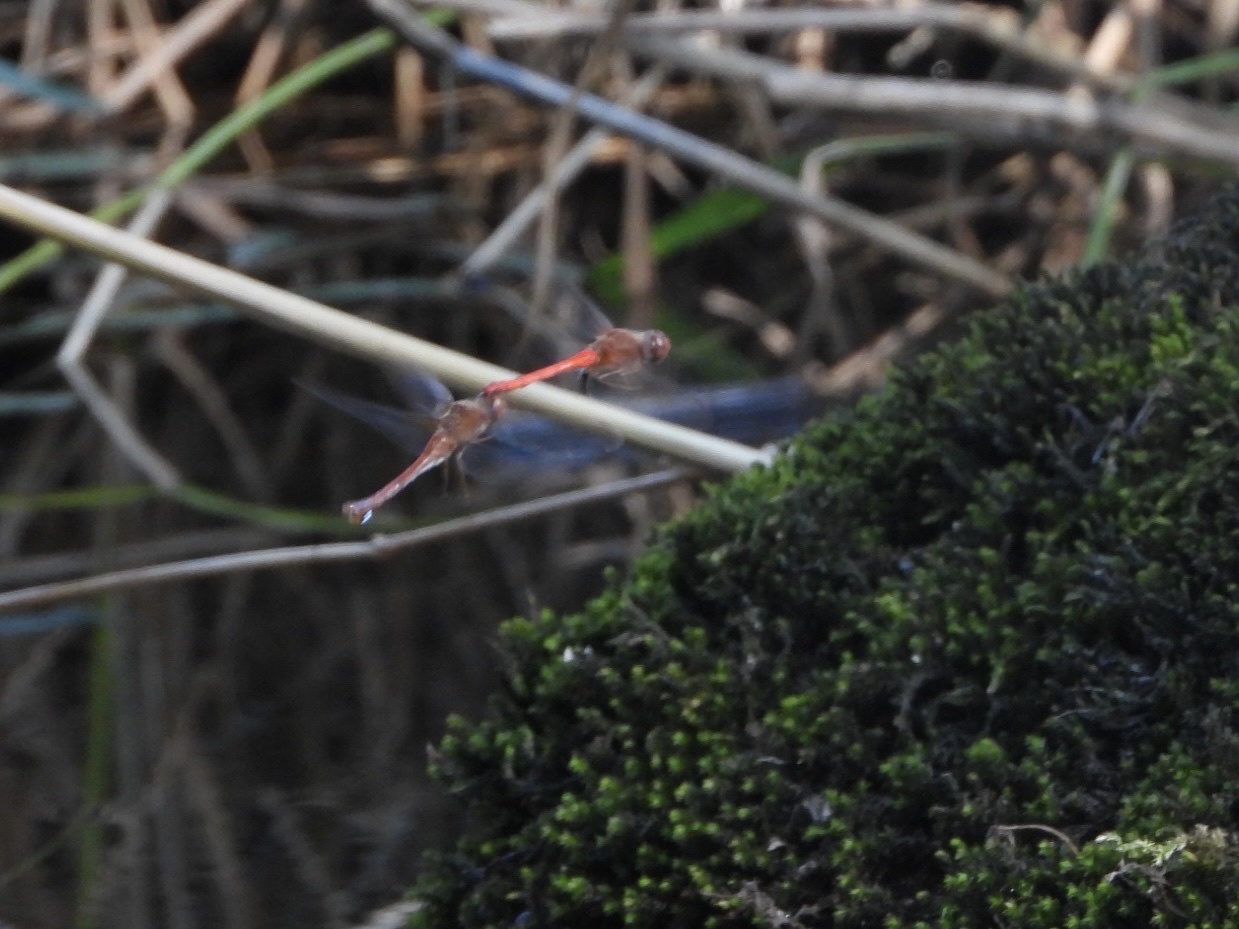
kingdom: Animalia
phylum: Arthropoda
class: Insecta
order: Odonata
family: Libellulidae
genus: Sympetrum
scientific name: Sympetrum vicinum
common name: Autumn meadowhawk
